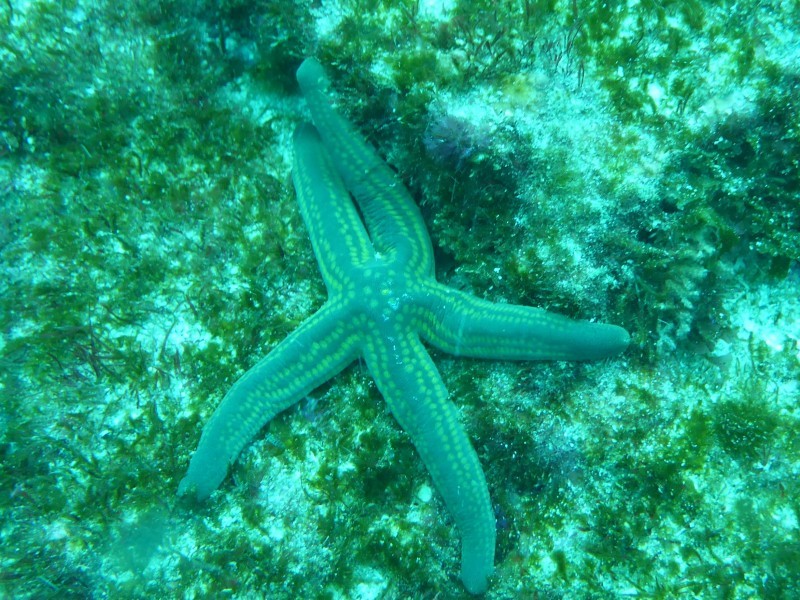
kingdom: Animalia
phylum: Echinodermata
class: Asteroidea
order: Valvatida
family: Ophidiasteridae
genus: Pharia
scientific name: Pharia pyramidata
